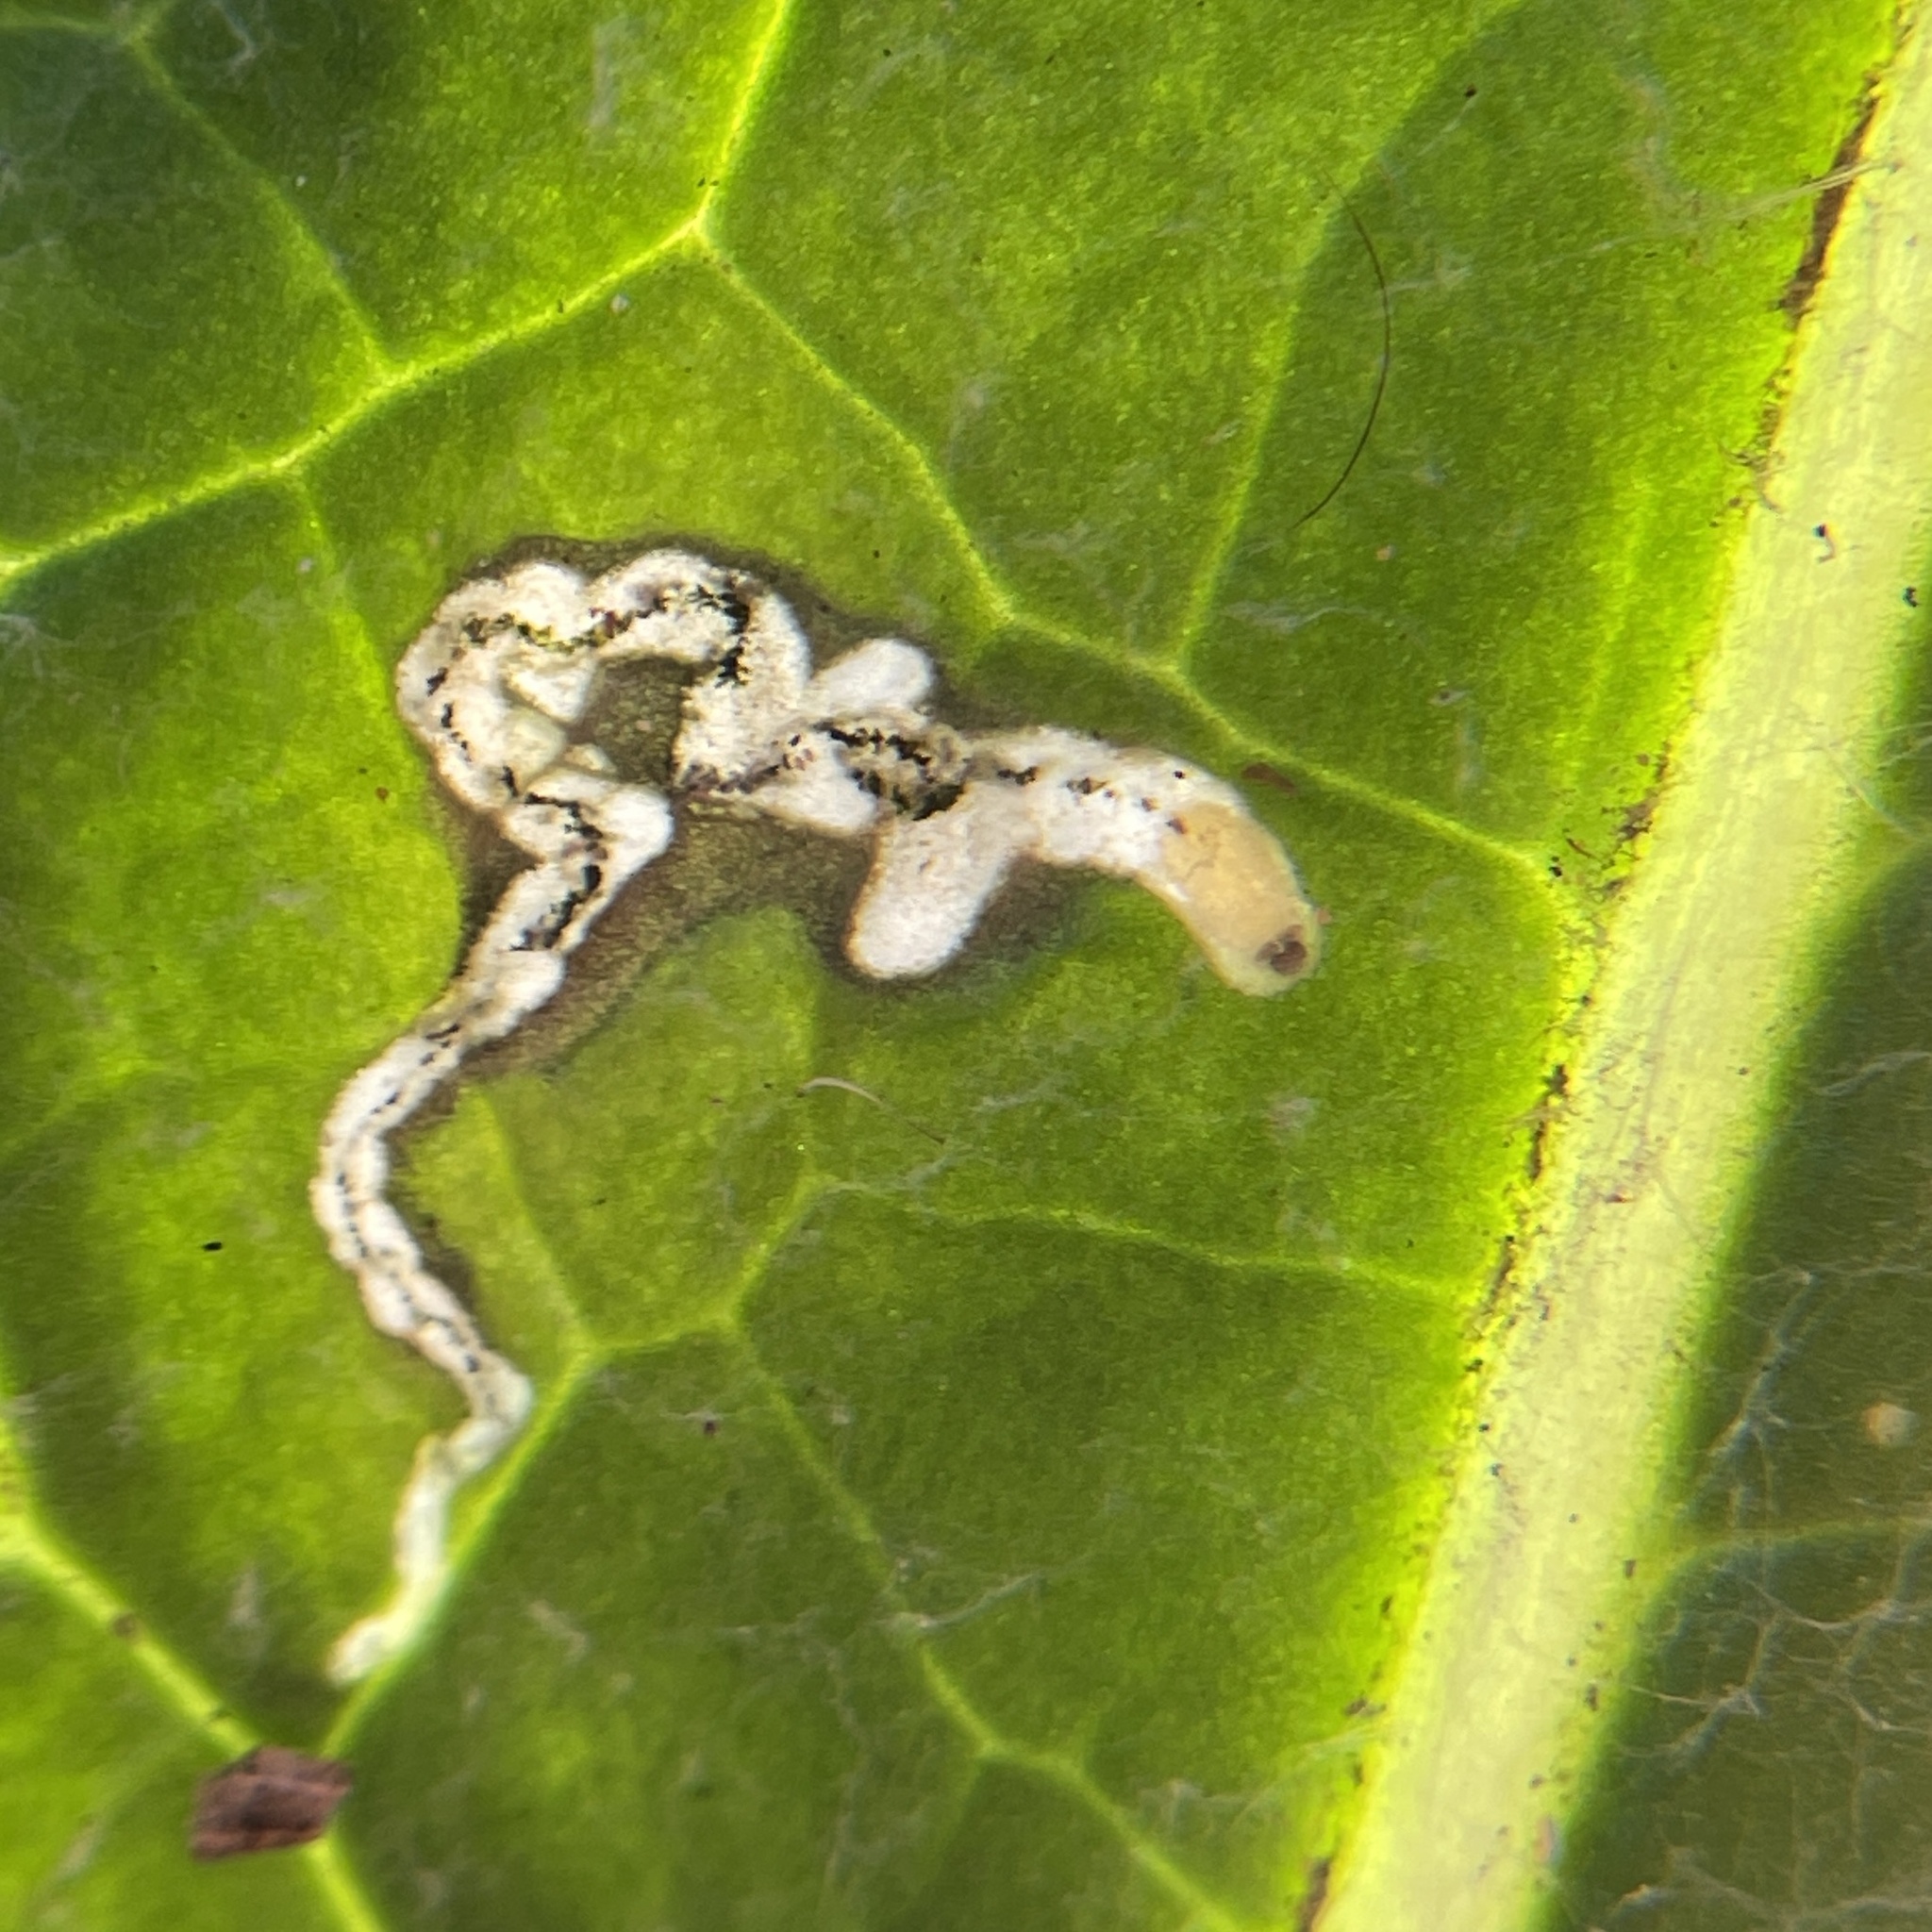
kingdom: Animalia
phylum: Arthropoda
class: Insecta
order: Coleoptera
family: Chrysomelidae
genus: Oulema
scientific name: Oulema palustris
